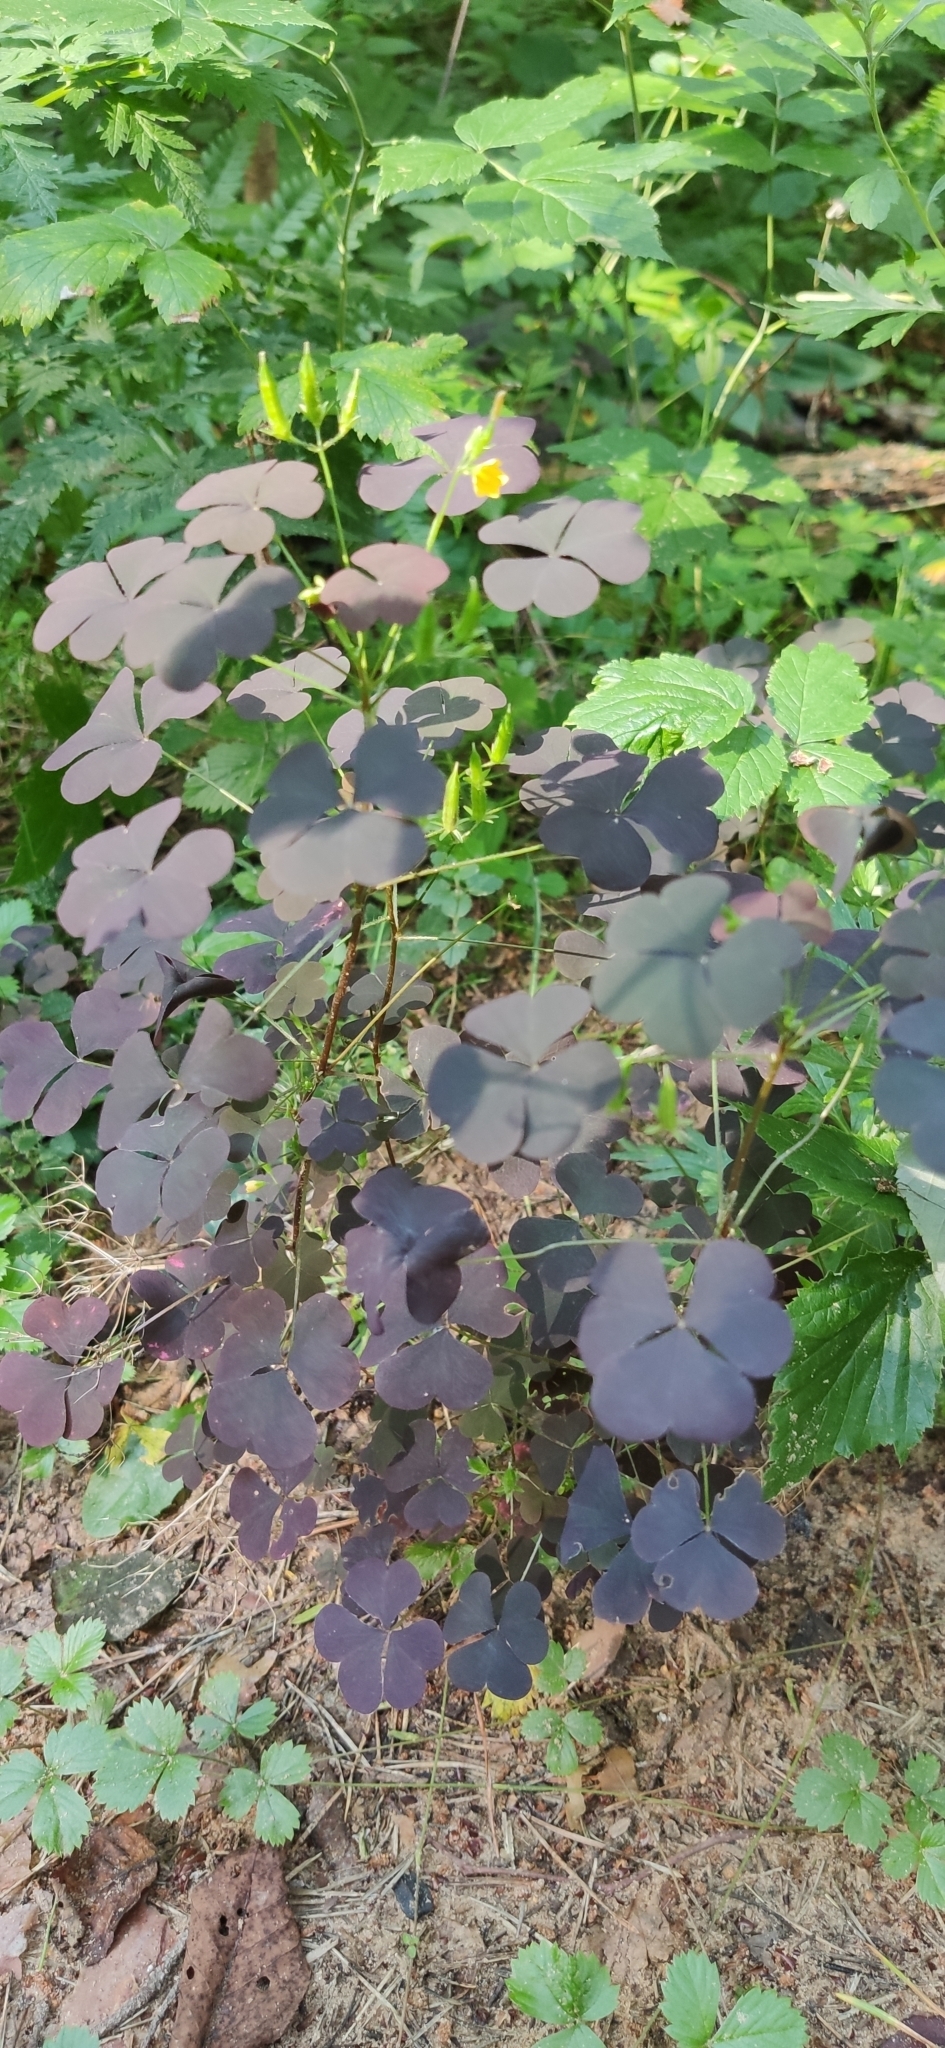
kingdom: Plantae
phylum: Tracheophyta
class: Magnoliopsida
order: Oxalidales
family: Oxalidaceae
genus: Oxalis
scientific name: Oxalis stricta
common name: Upright yellow-sorrel
